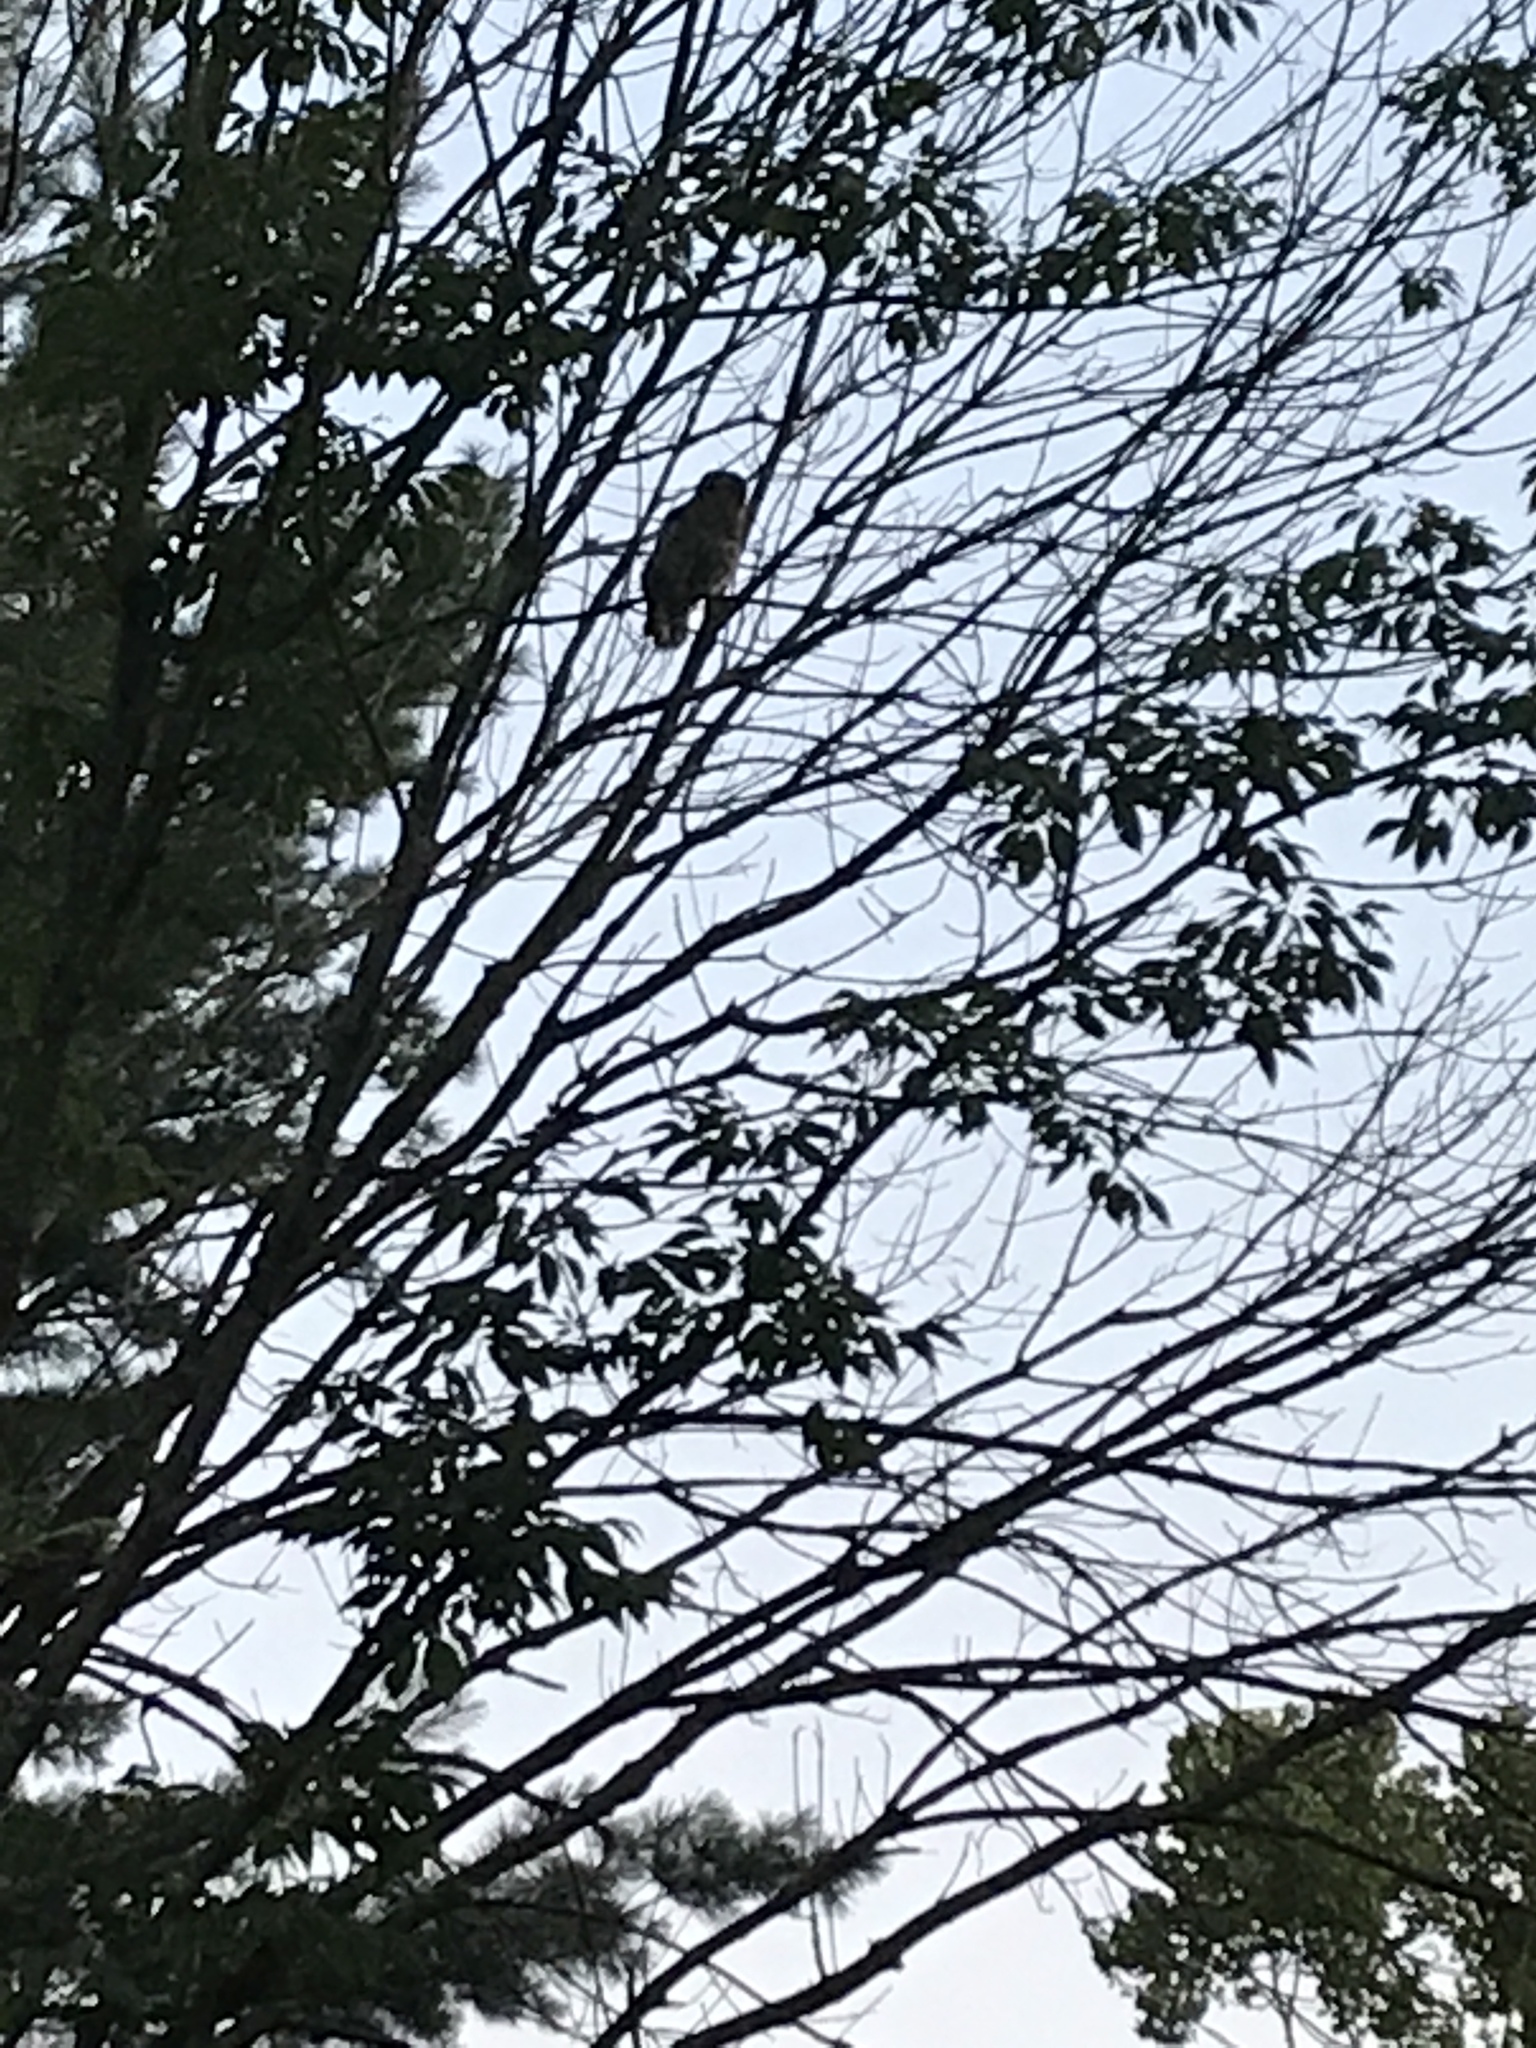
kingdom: Animalia
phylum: Chordata
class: Aves
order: Strigiformes
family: Strigidae
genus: Strix
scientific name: Strix varia
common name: Barred owl
